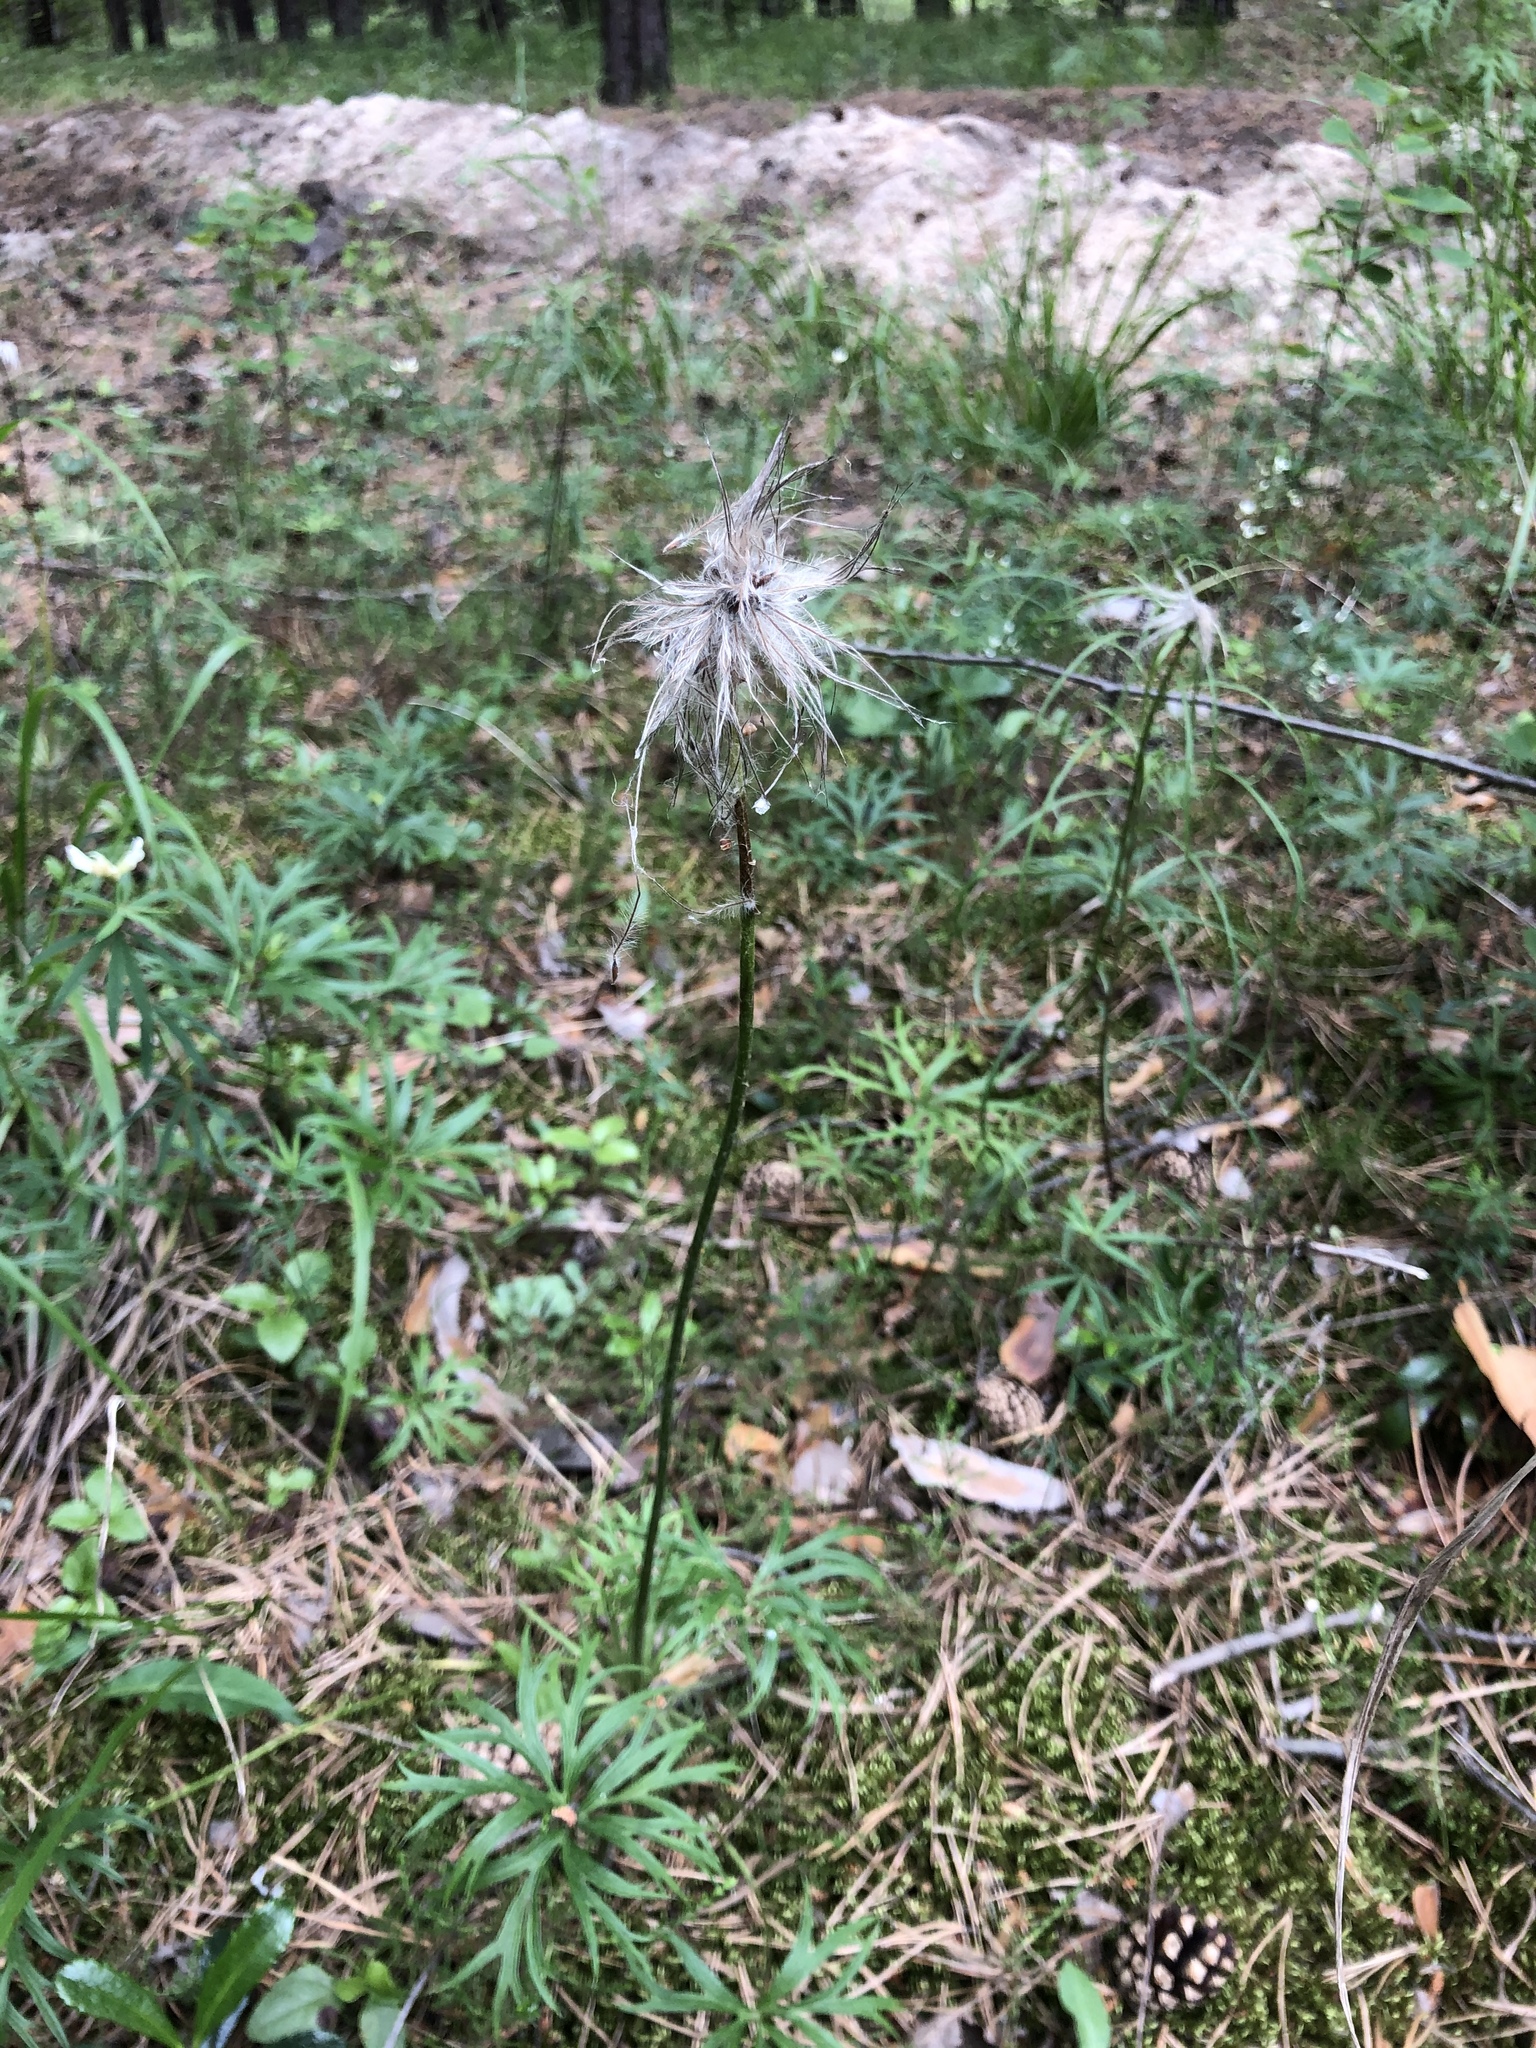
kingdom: Plantae
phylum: Tracheophyta
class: Magnoliopsida
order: Ranunculales
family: Ranunculaceae
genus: Pulsatilla
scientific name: Pulsatilla patens
